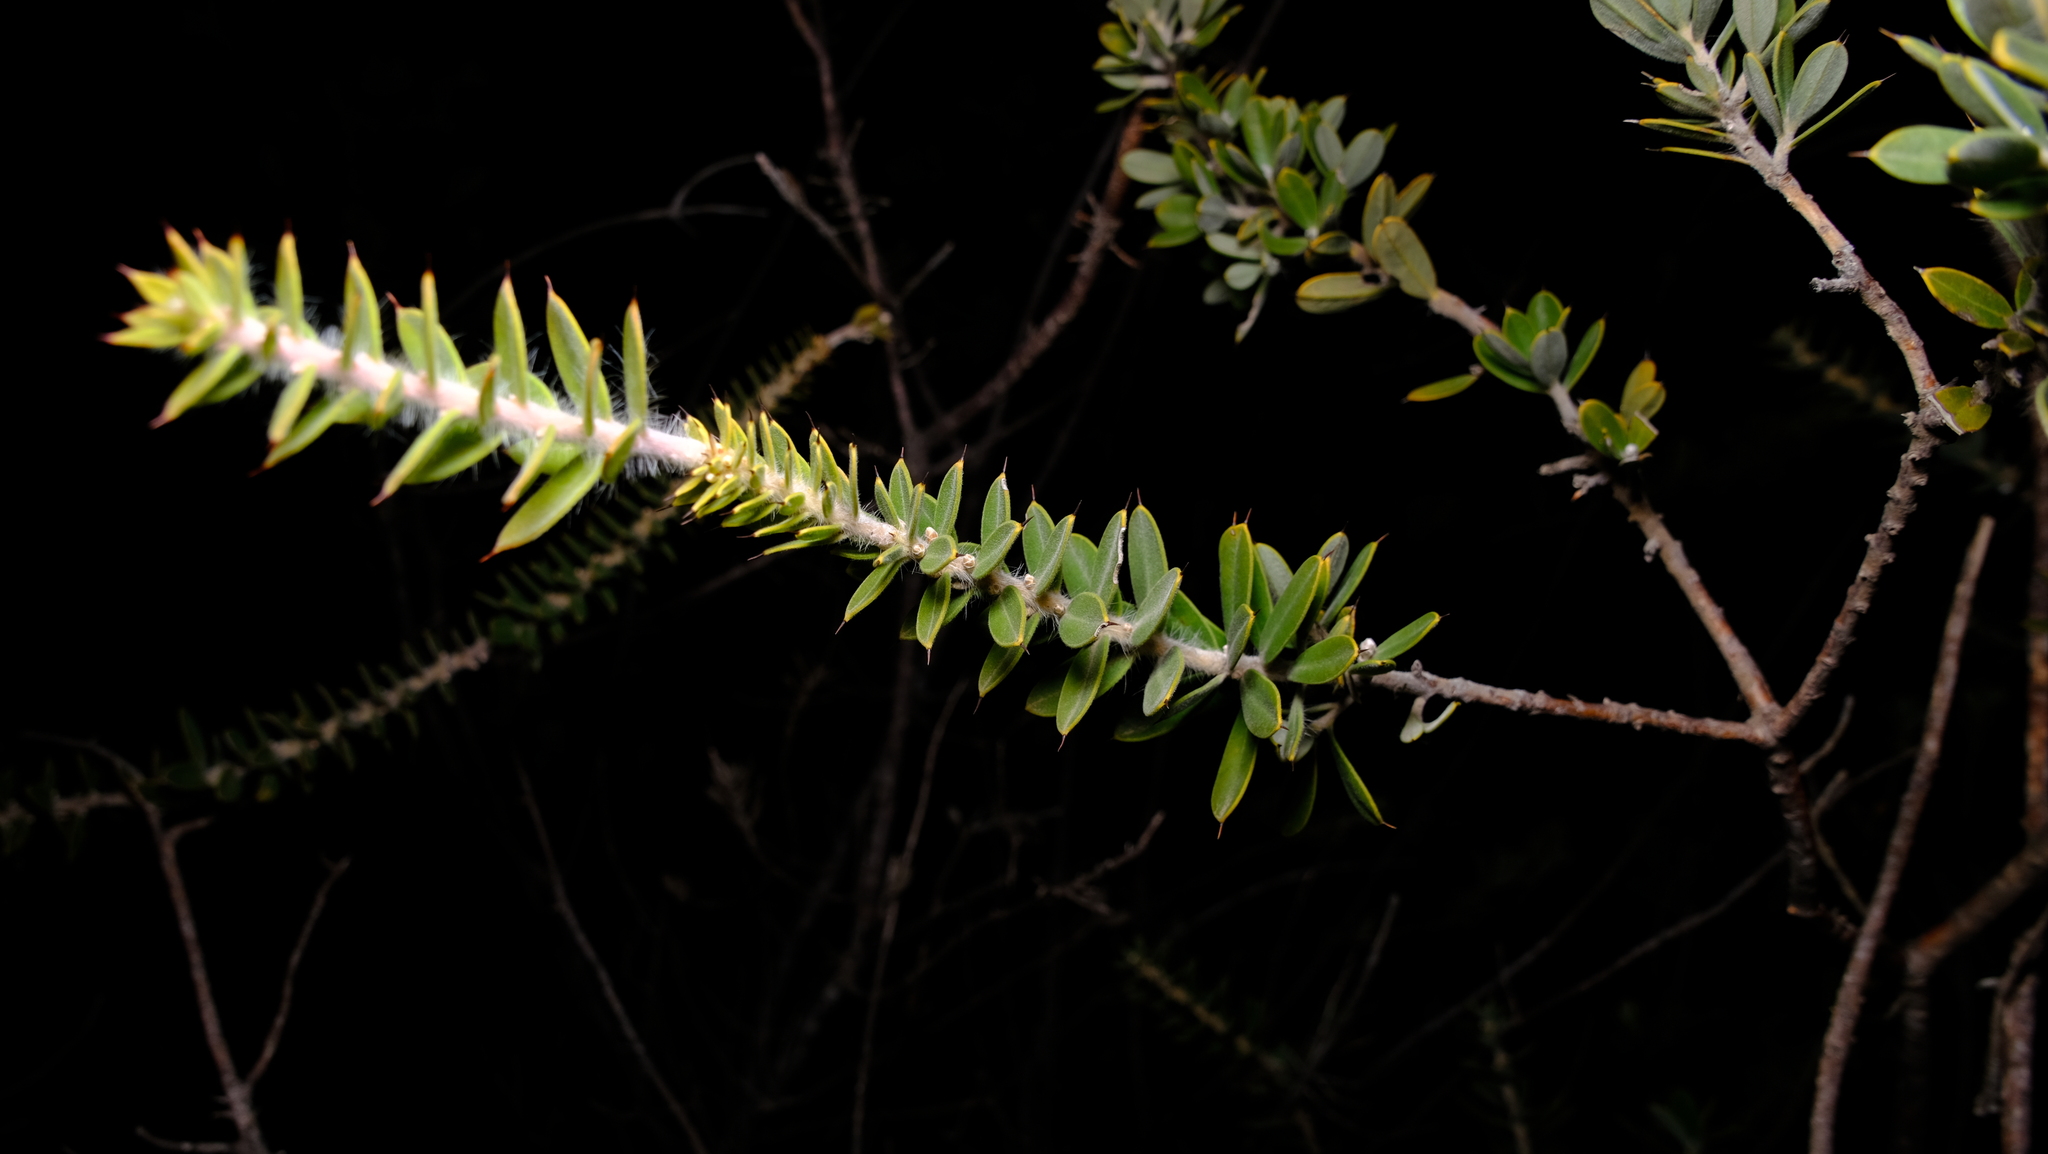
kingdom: Plantae
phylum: Tracheophyta
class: Magnoliopsida
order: Proteales
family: Proteaceae
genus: Hakea
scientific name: Hakea ruscifolia
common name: Candle hakea
